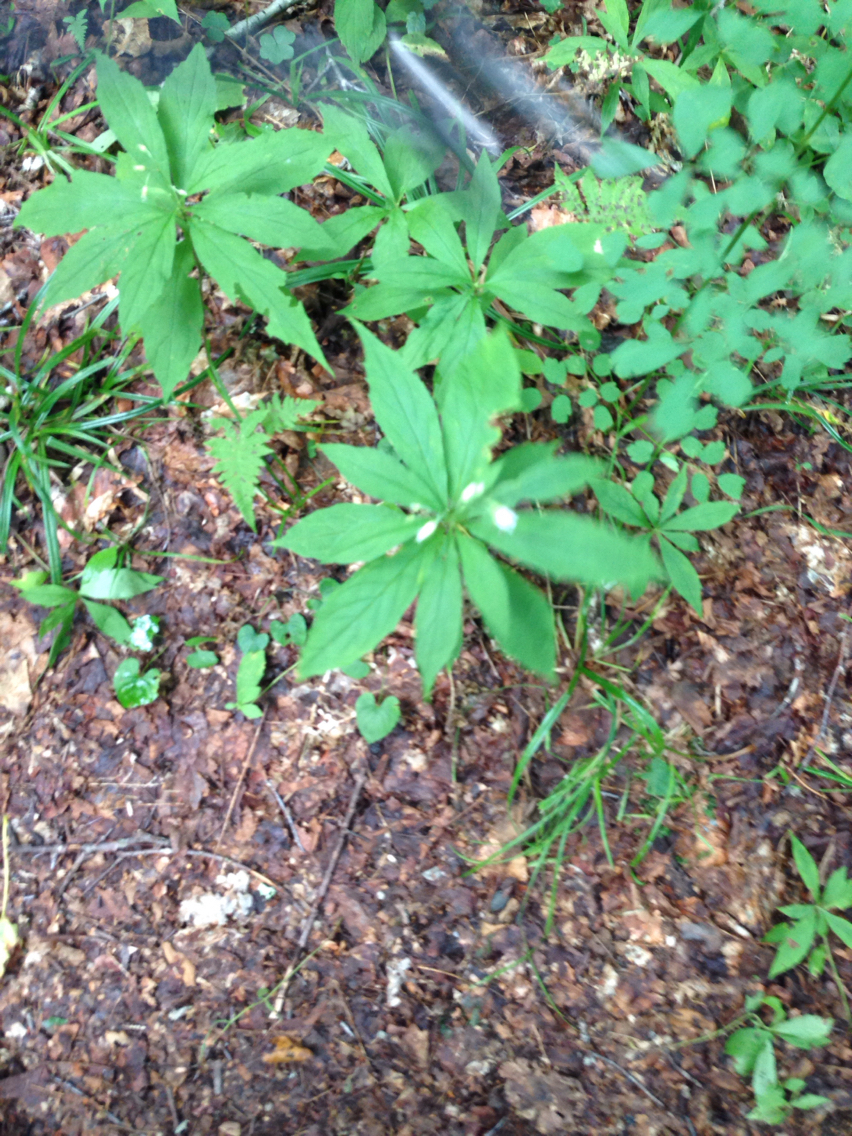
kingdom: Plantae
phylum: Tracheophyta
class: Magnoliopsida
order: Asterales
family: Asteraceae
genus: Oclemena
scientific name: Oclemena acuminata
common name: Mountain aster
